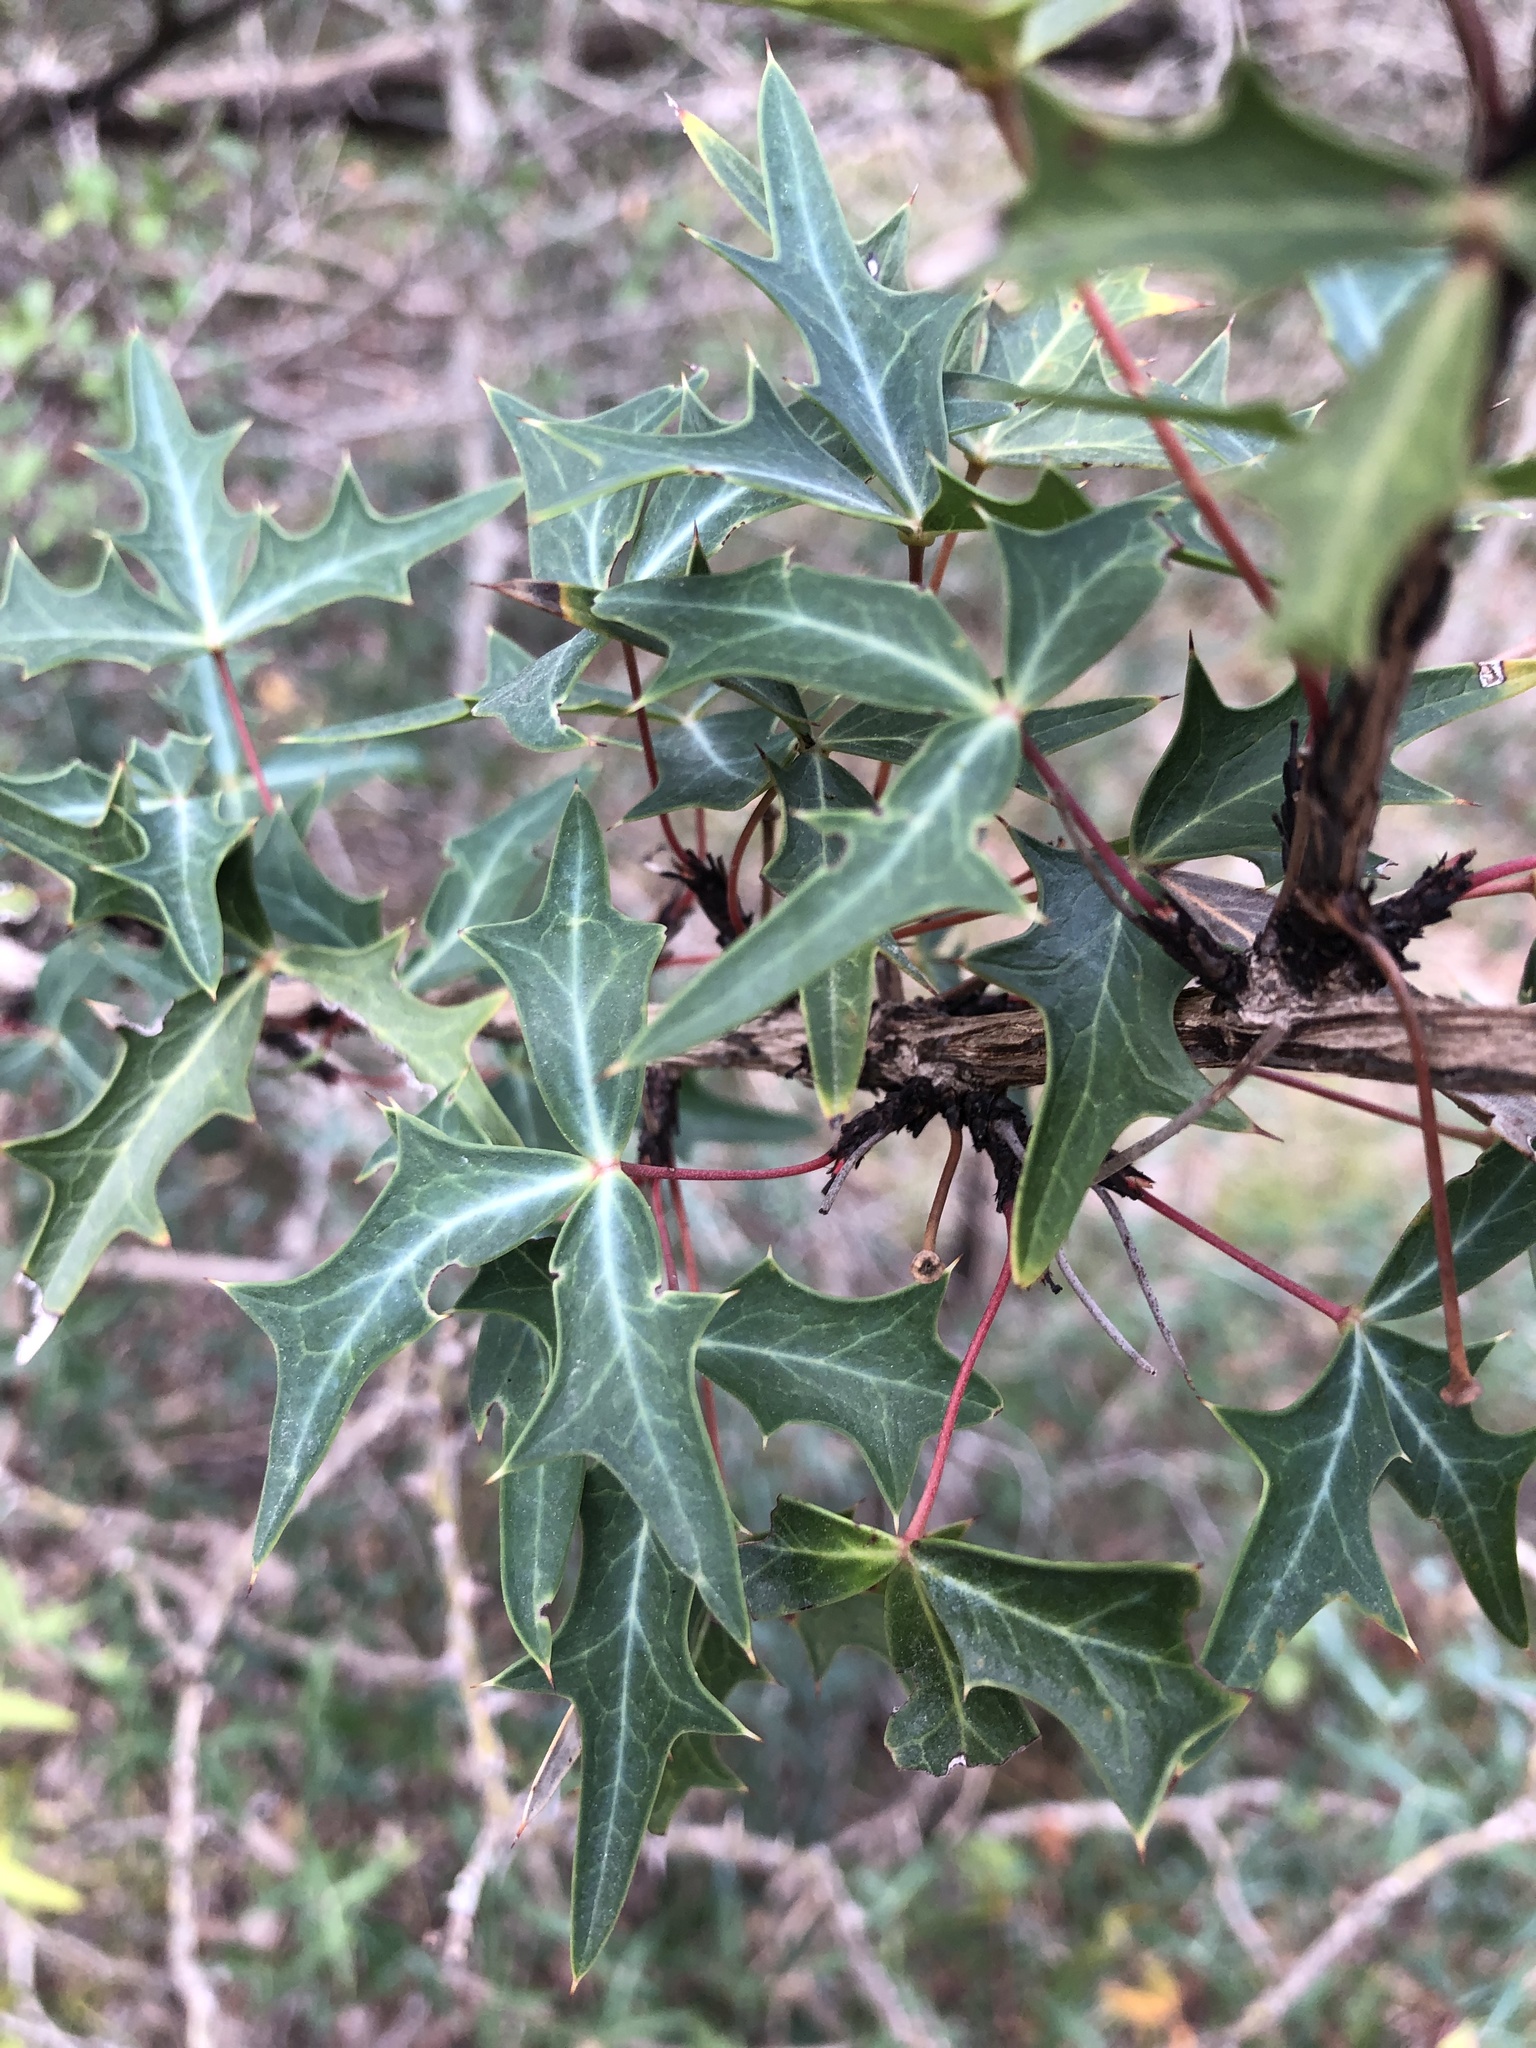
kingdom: Plantae
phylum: Tracheophyta
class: Magnoliopsida
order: Ranunculales
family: Berberidaceae
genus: Alloberberis
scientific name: Alloberberis trifoliolata
